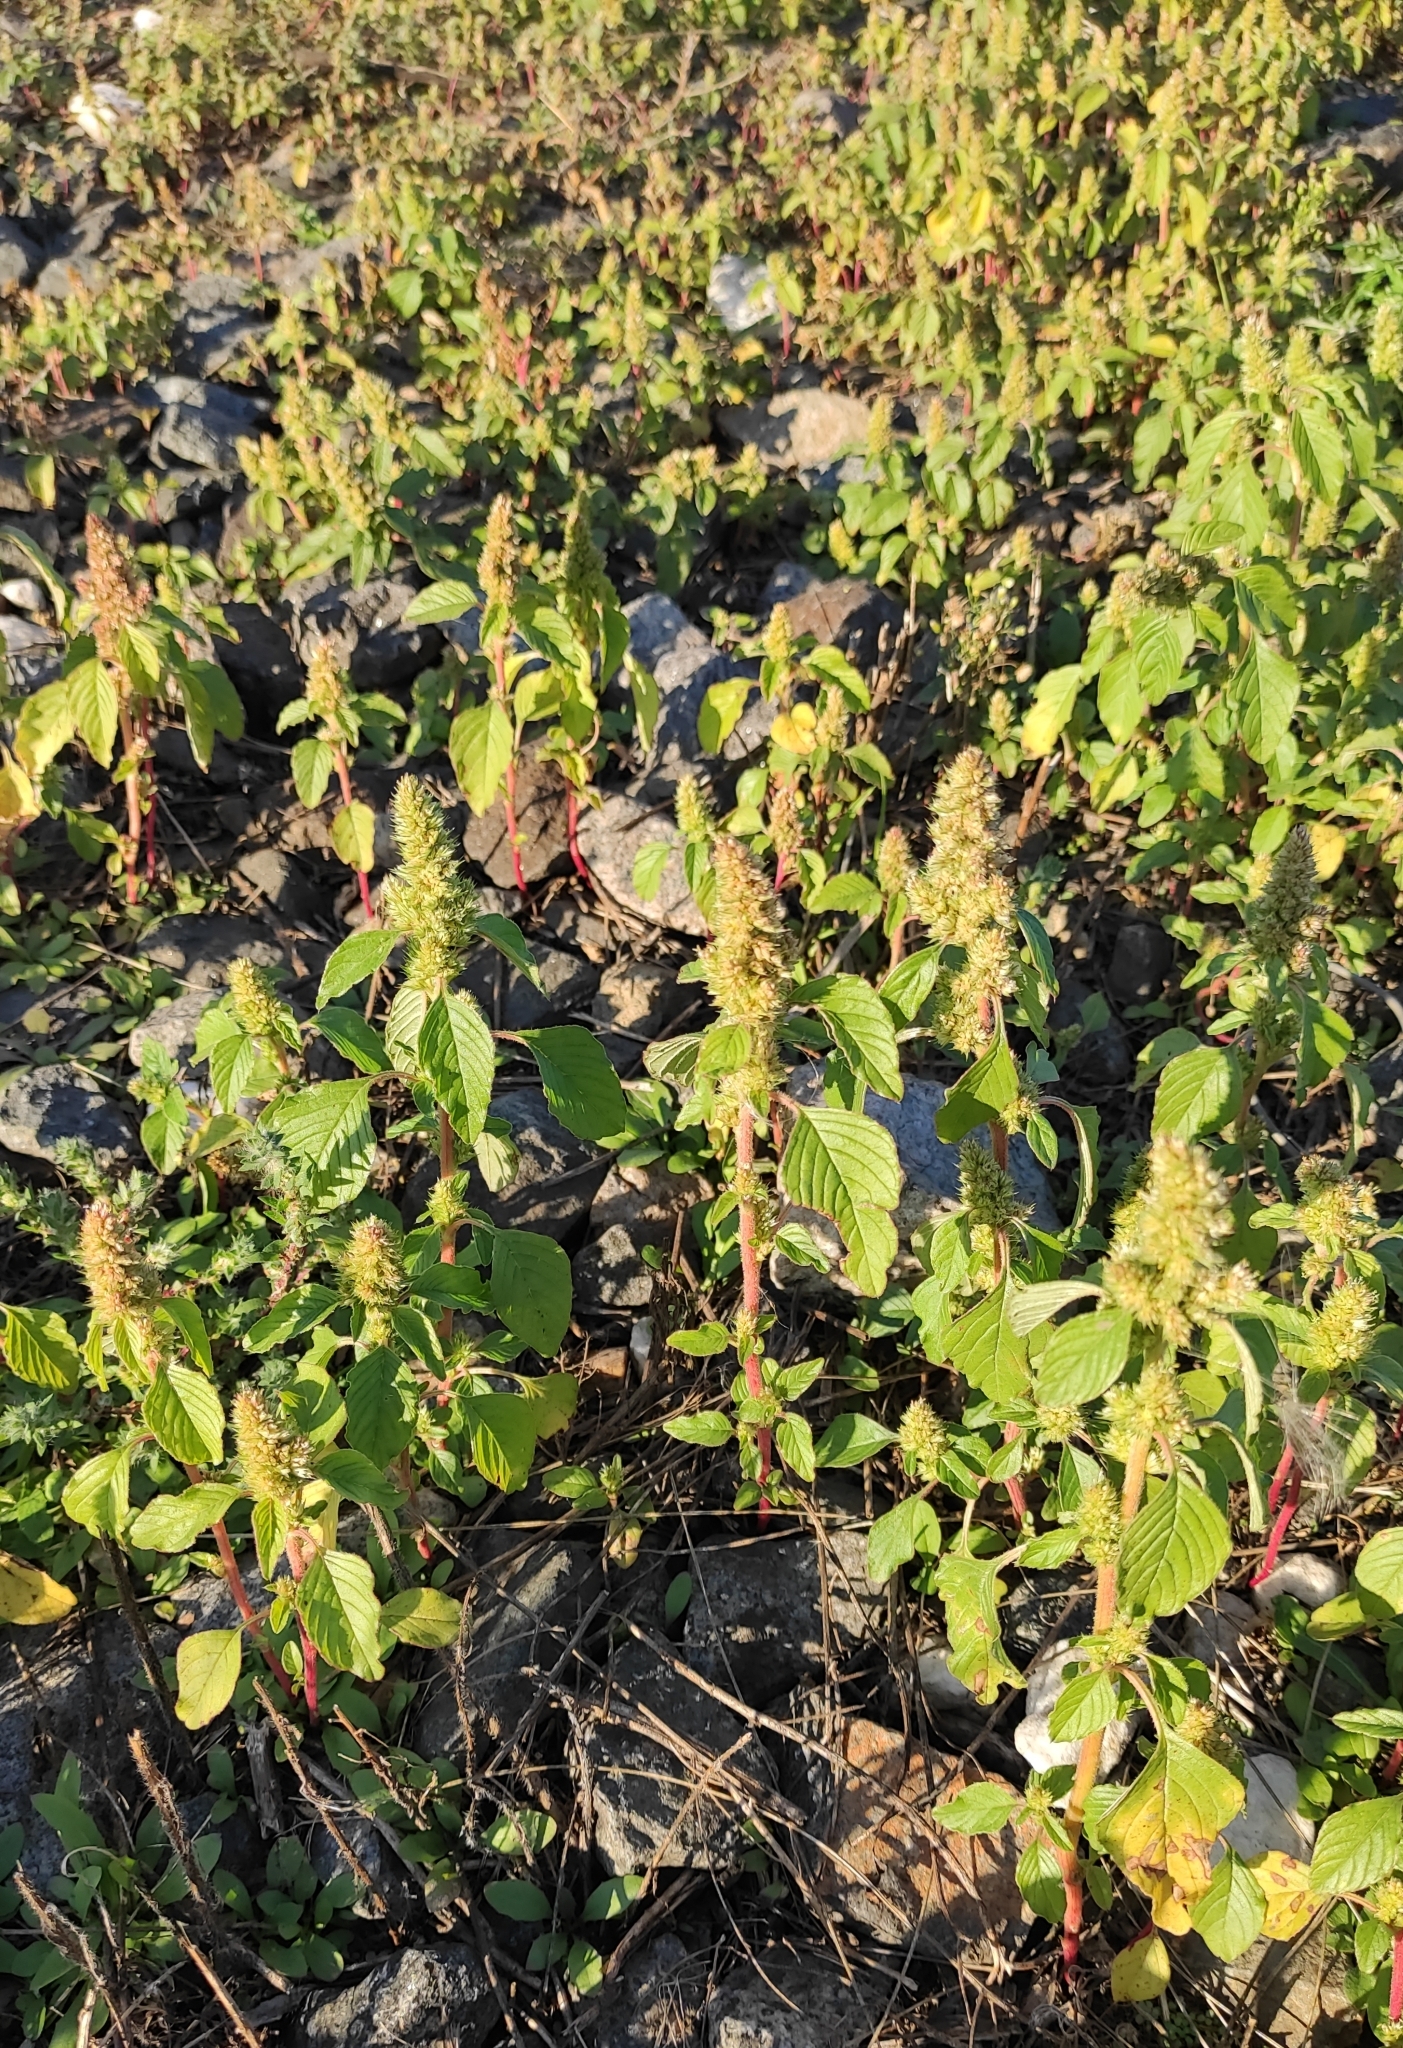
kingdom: Plantae
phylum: Tracheophyta
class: Magnoliopsida
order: Caryophyllales
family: Amaranthaceae
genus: Amaranthus
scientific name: Amaranthus retroflexus
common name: Redroot amaranth
